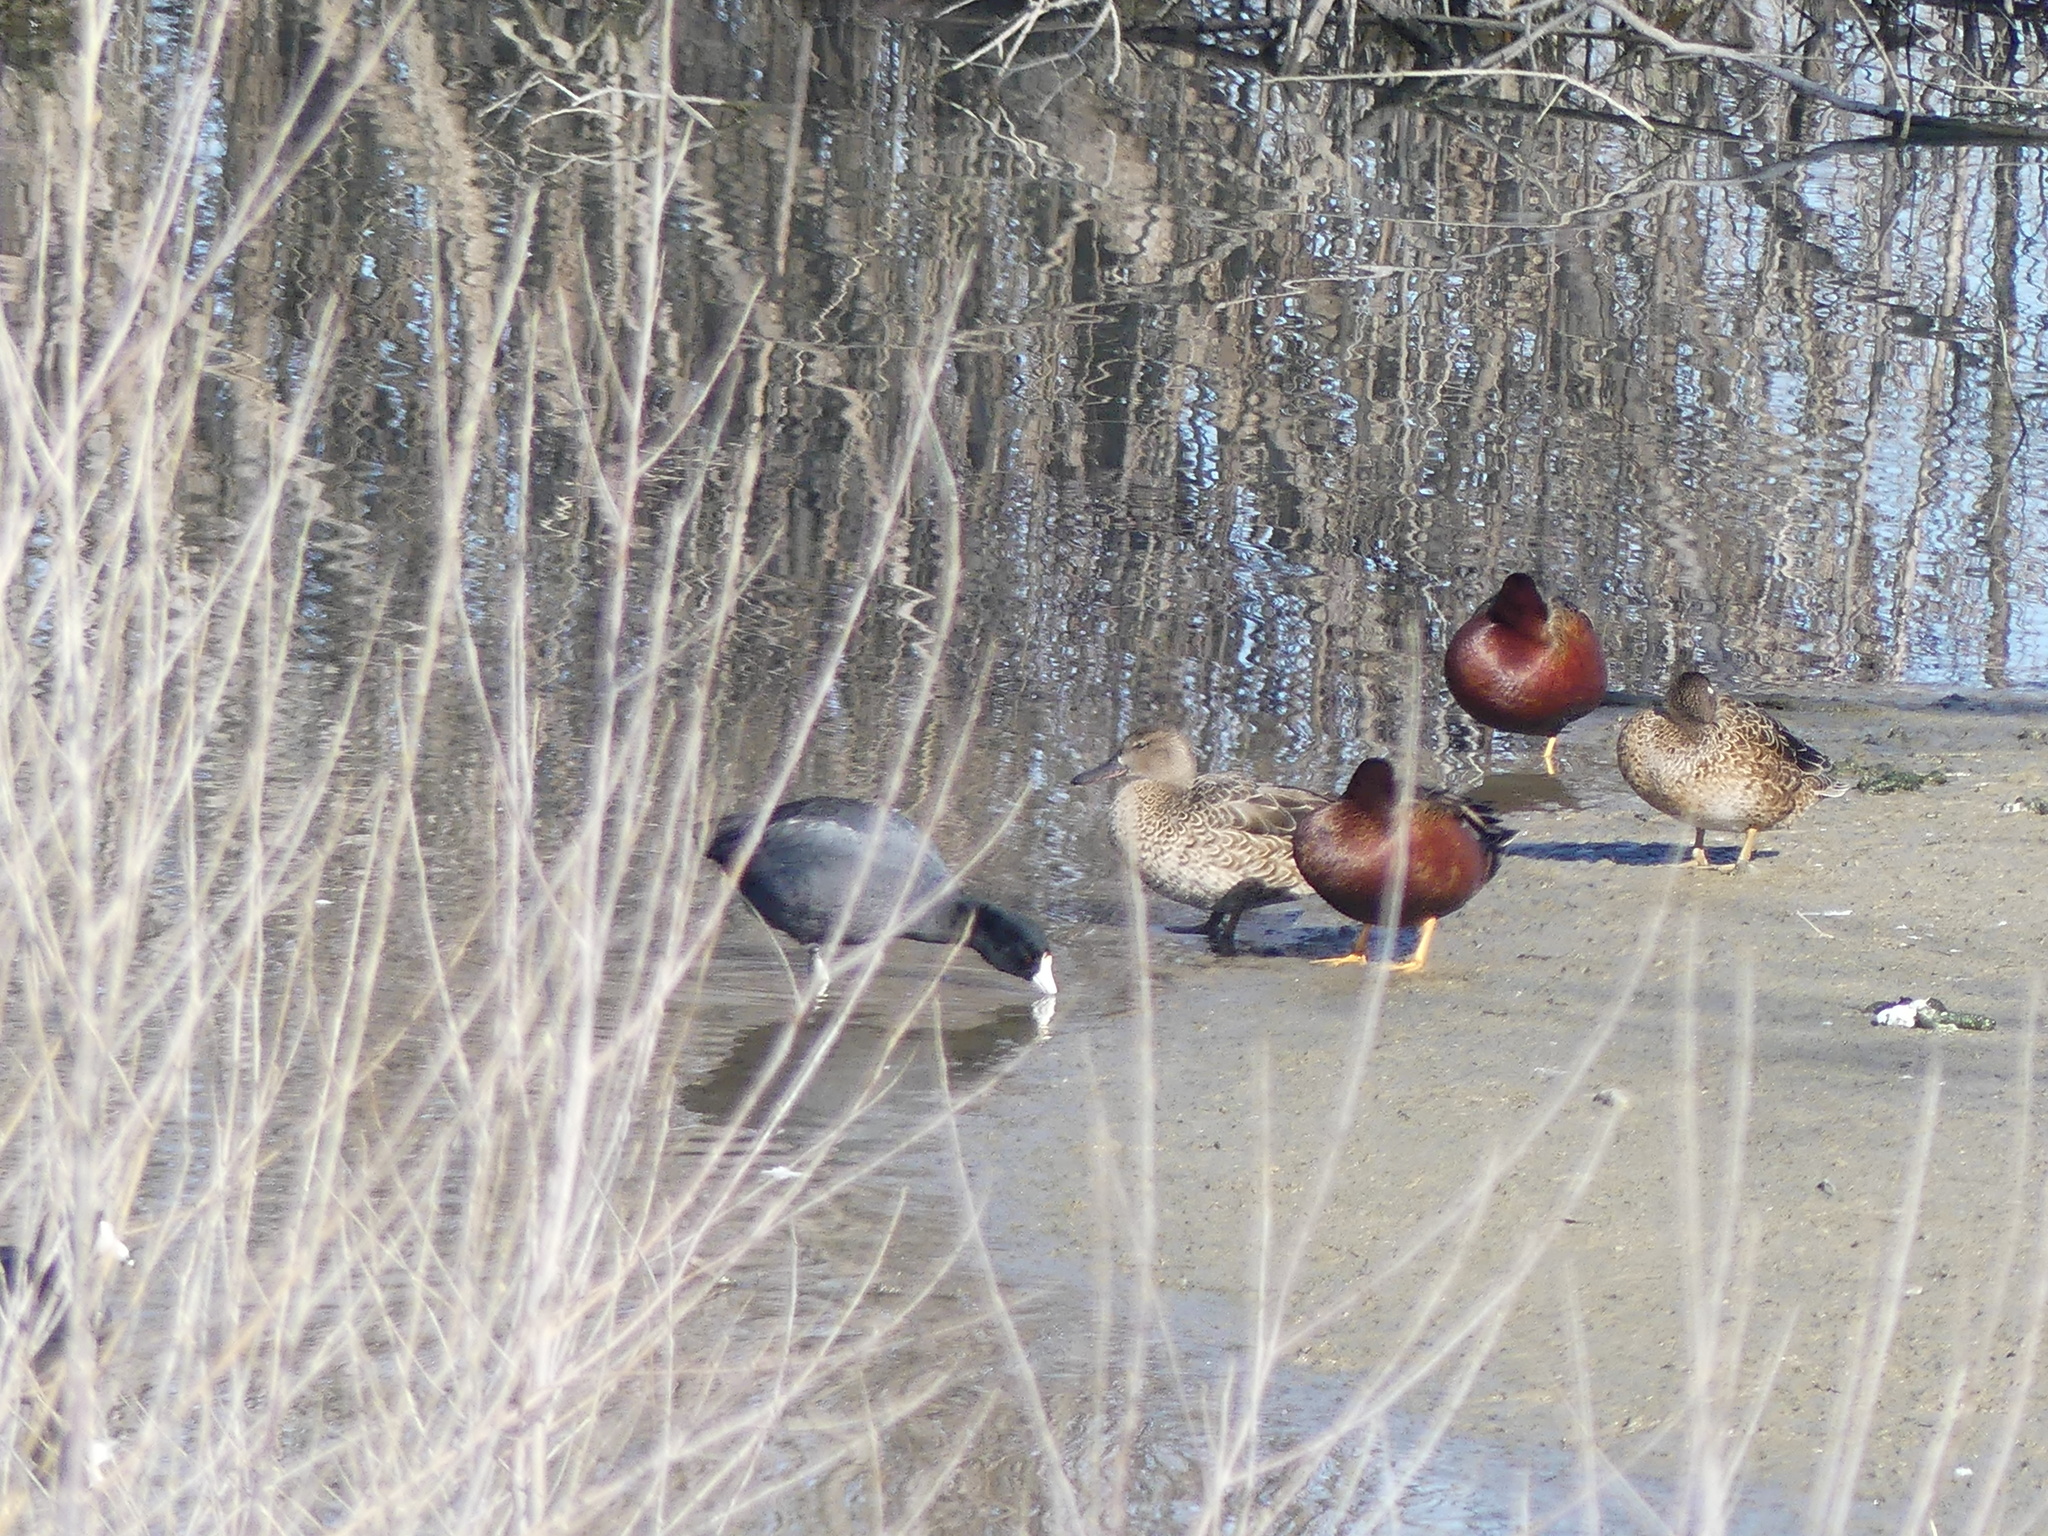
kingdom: Animalia
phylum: Chordata
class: Aves
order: Anseriformes
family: Anatidae
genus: Spatula
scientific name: Spatula cyanoptera
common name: Cinnamon teal
